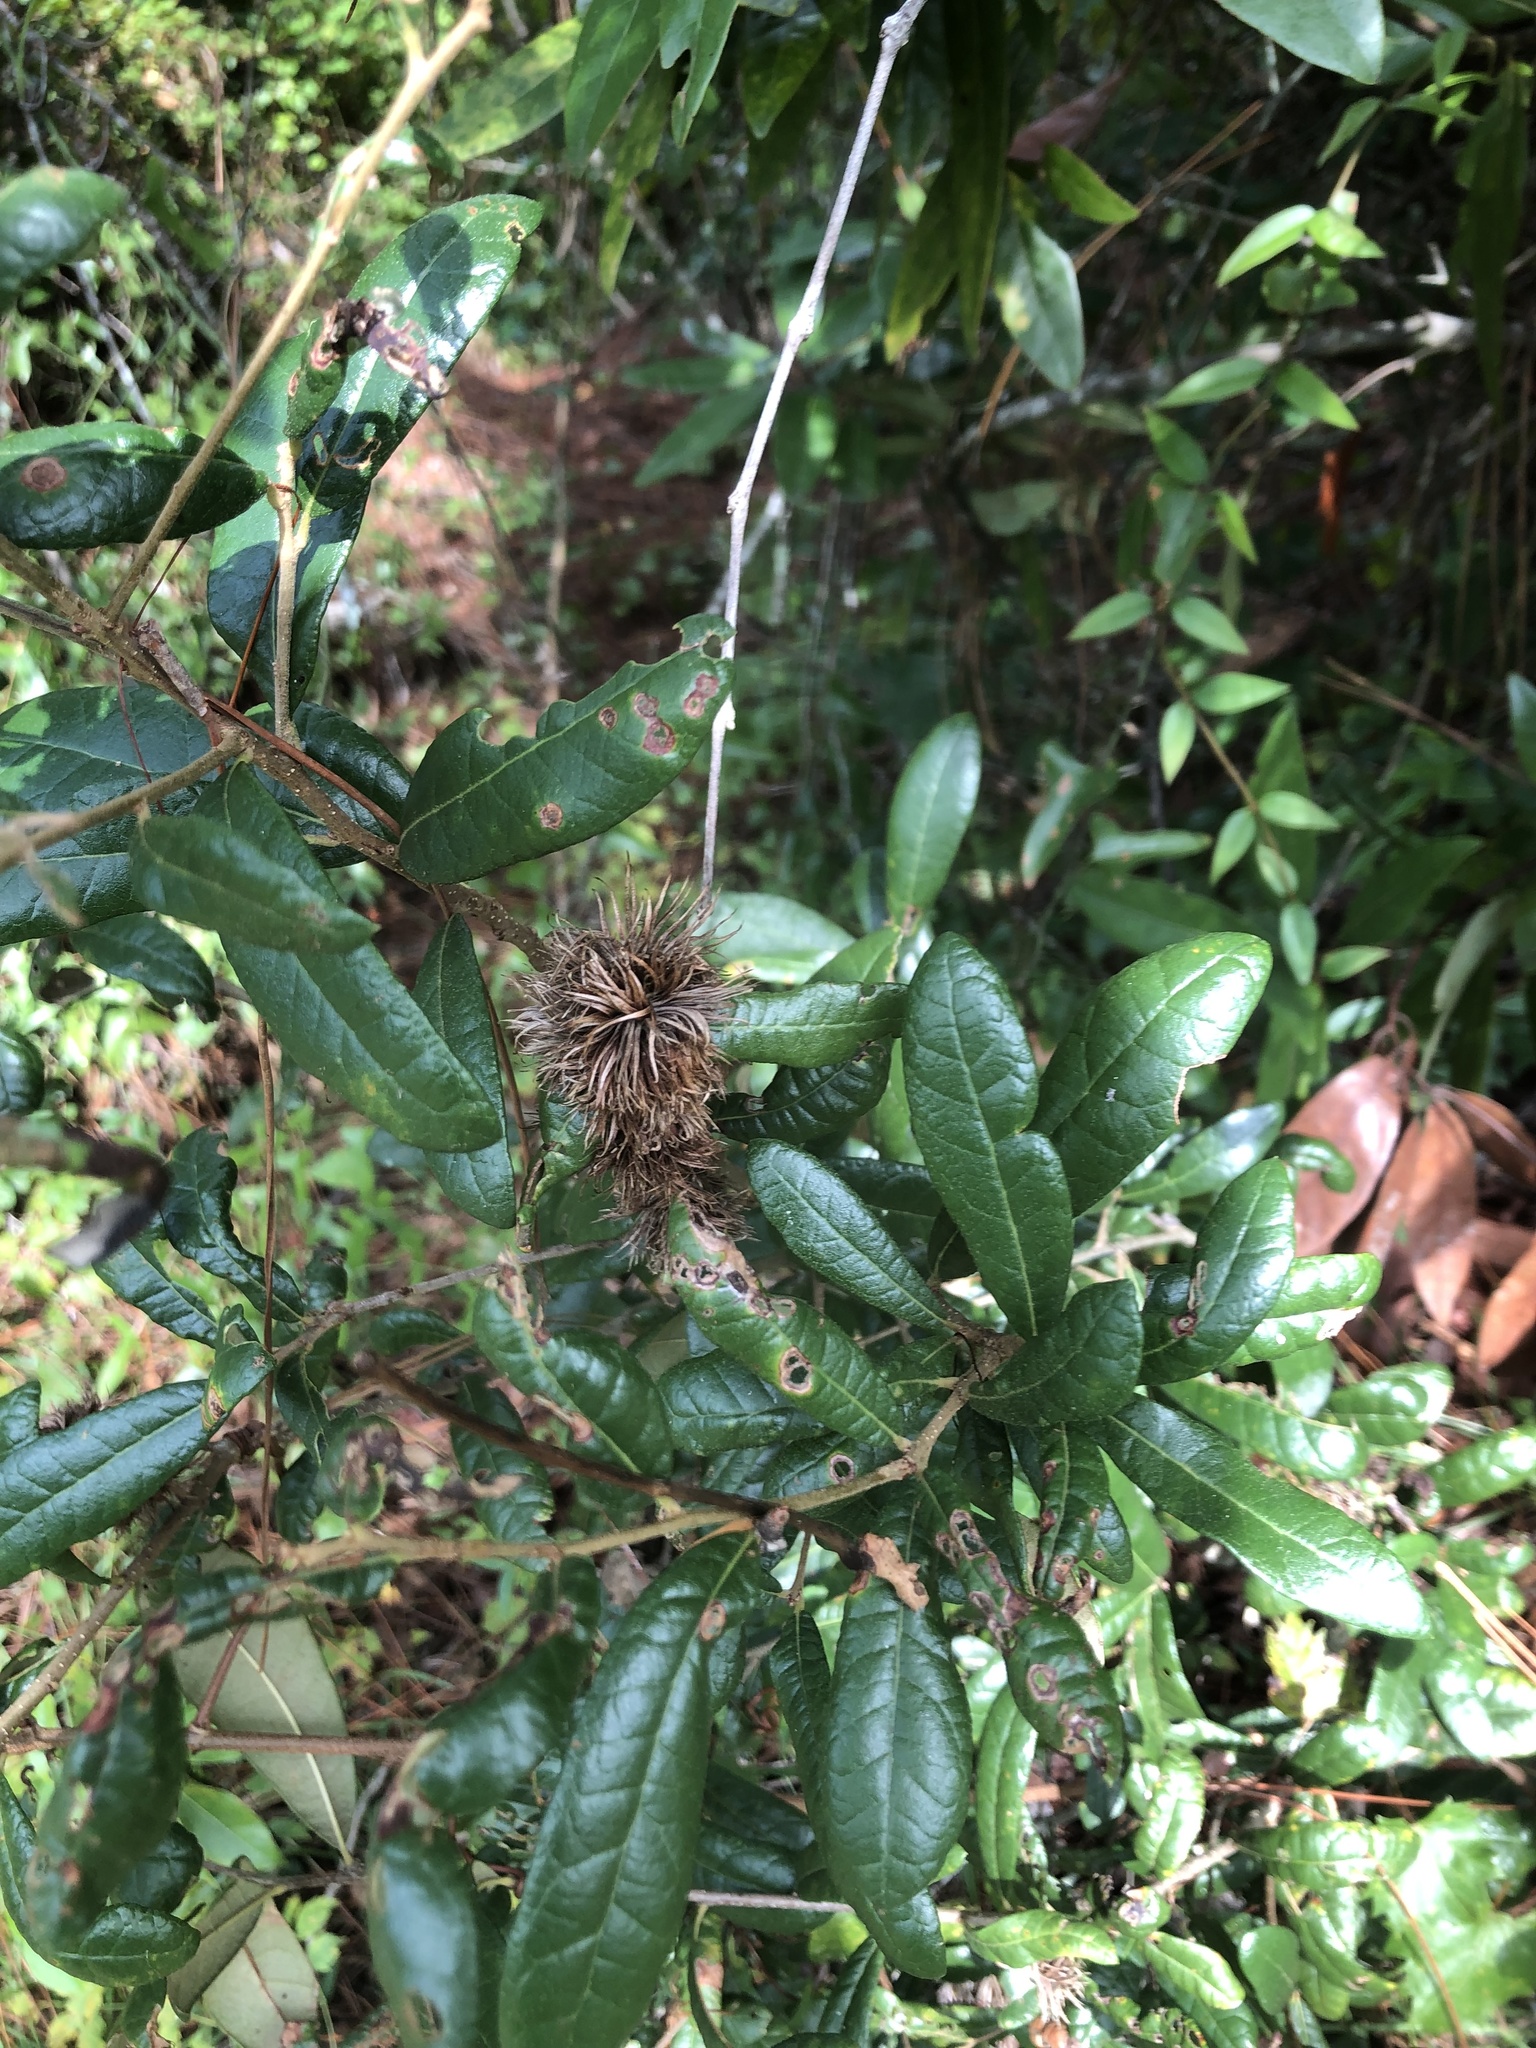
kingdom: Plantae
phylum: Tracheophyta
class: Magnoliopsida
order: Fagales
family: Fagaceae
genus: Quercus
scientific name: Quercus geminata
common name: Sand live oak
